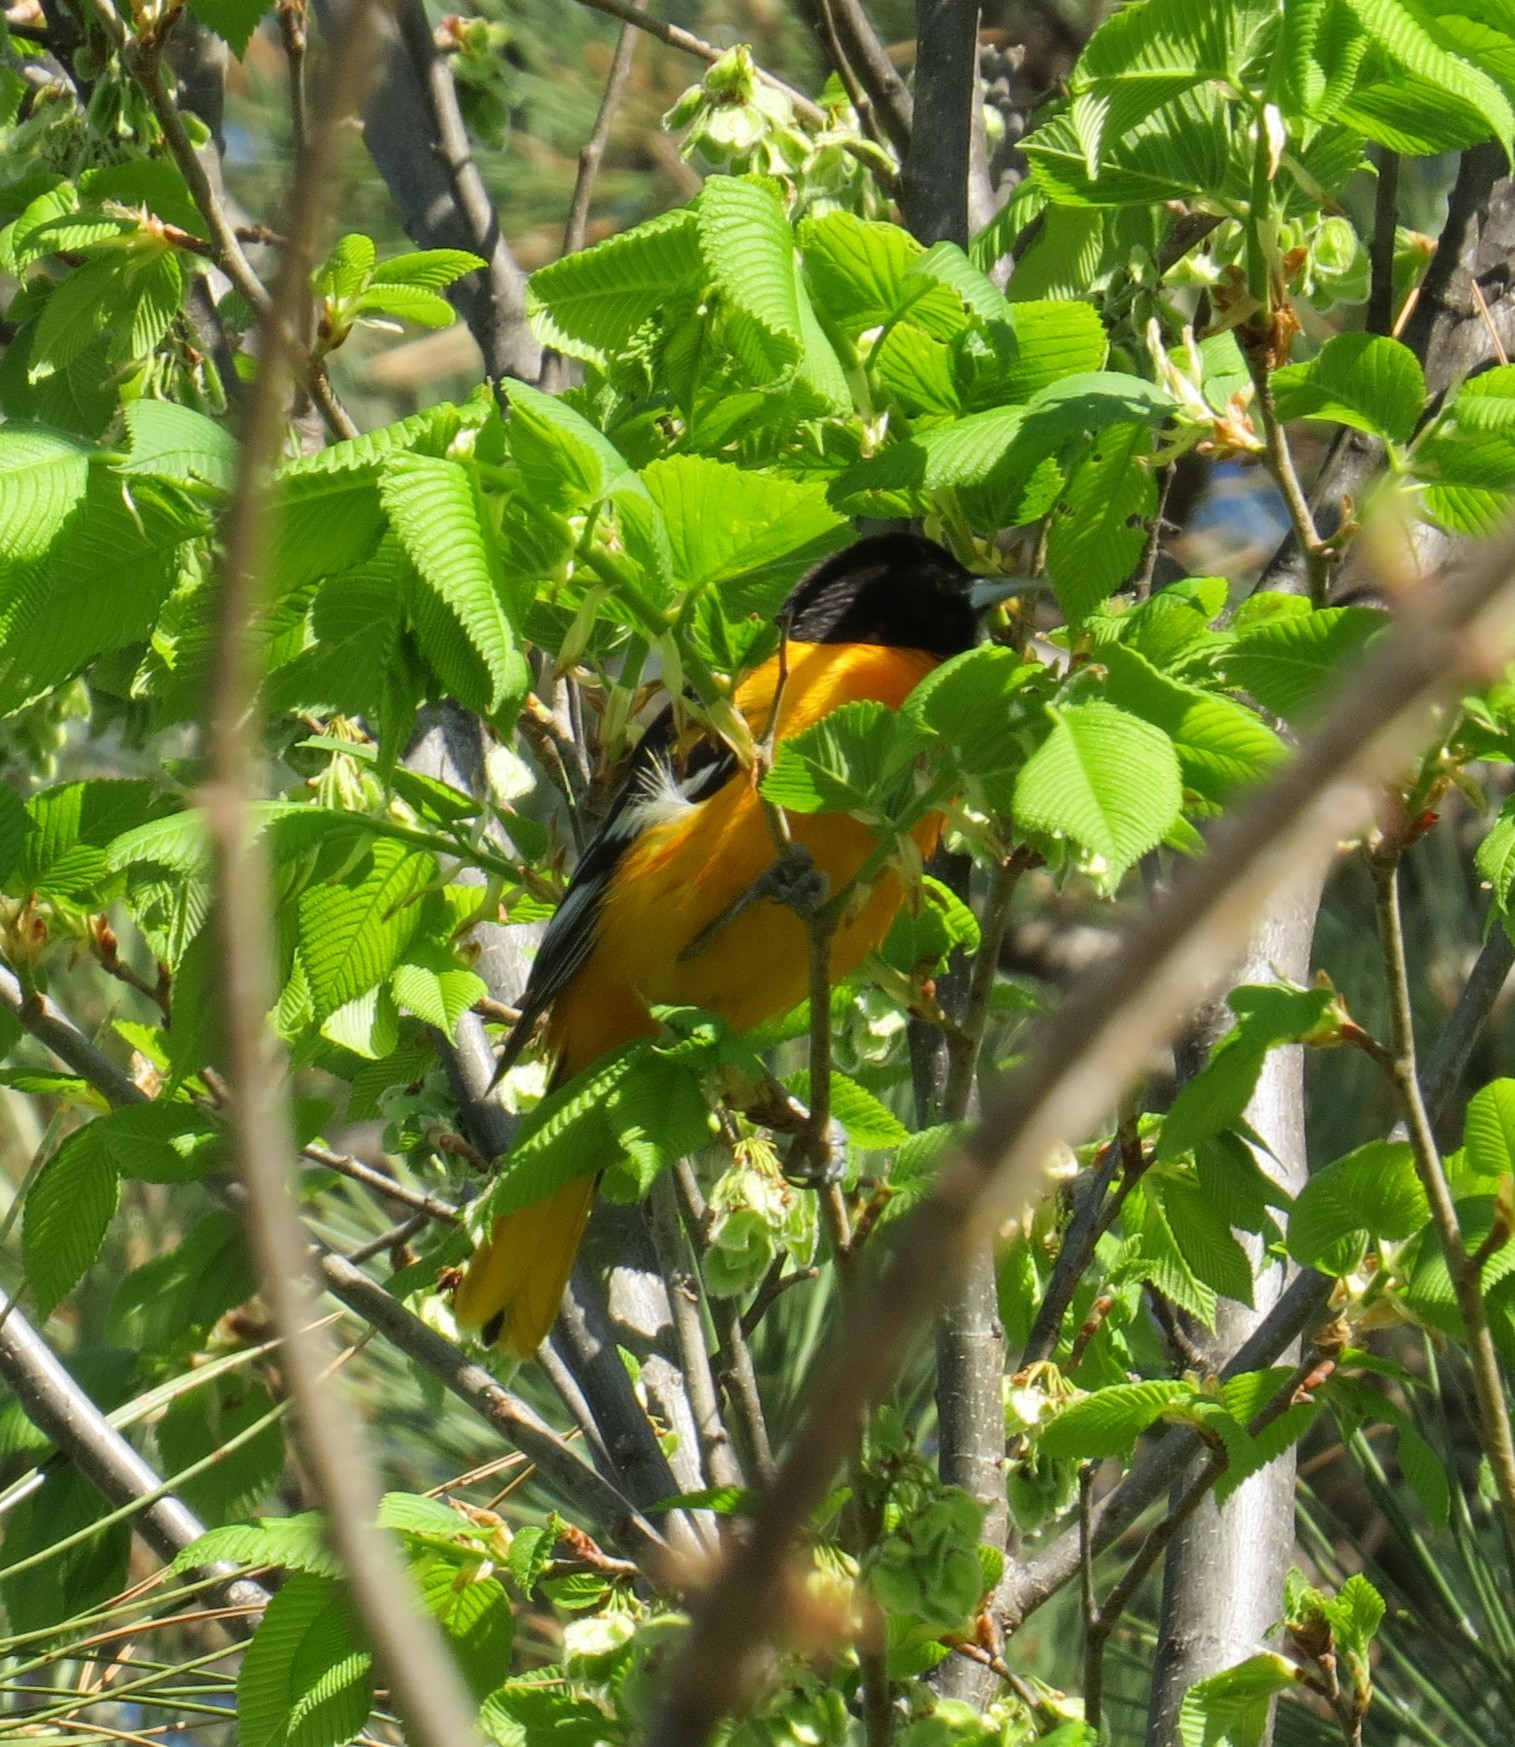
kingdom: Animalia
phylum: Chordata
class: Aves
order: Passeriformes
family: Icteridae
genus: Icterus
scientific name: Icterus galbula
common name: Baltimore oriole
